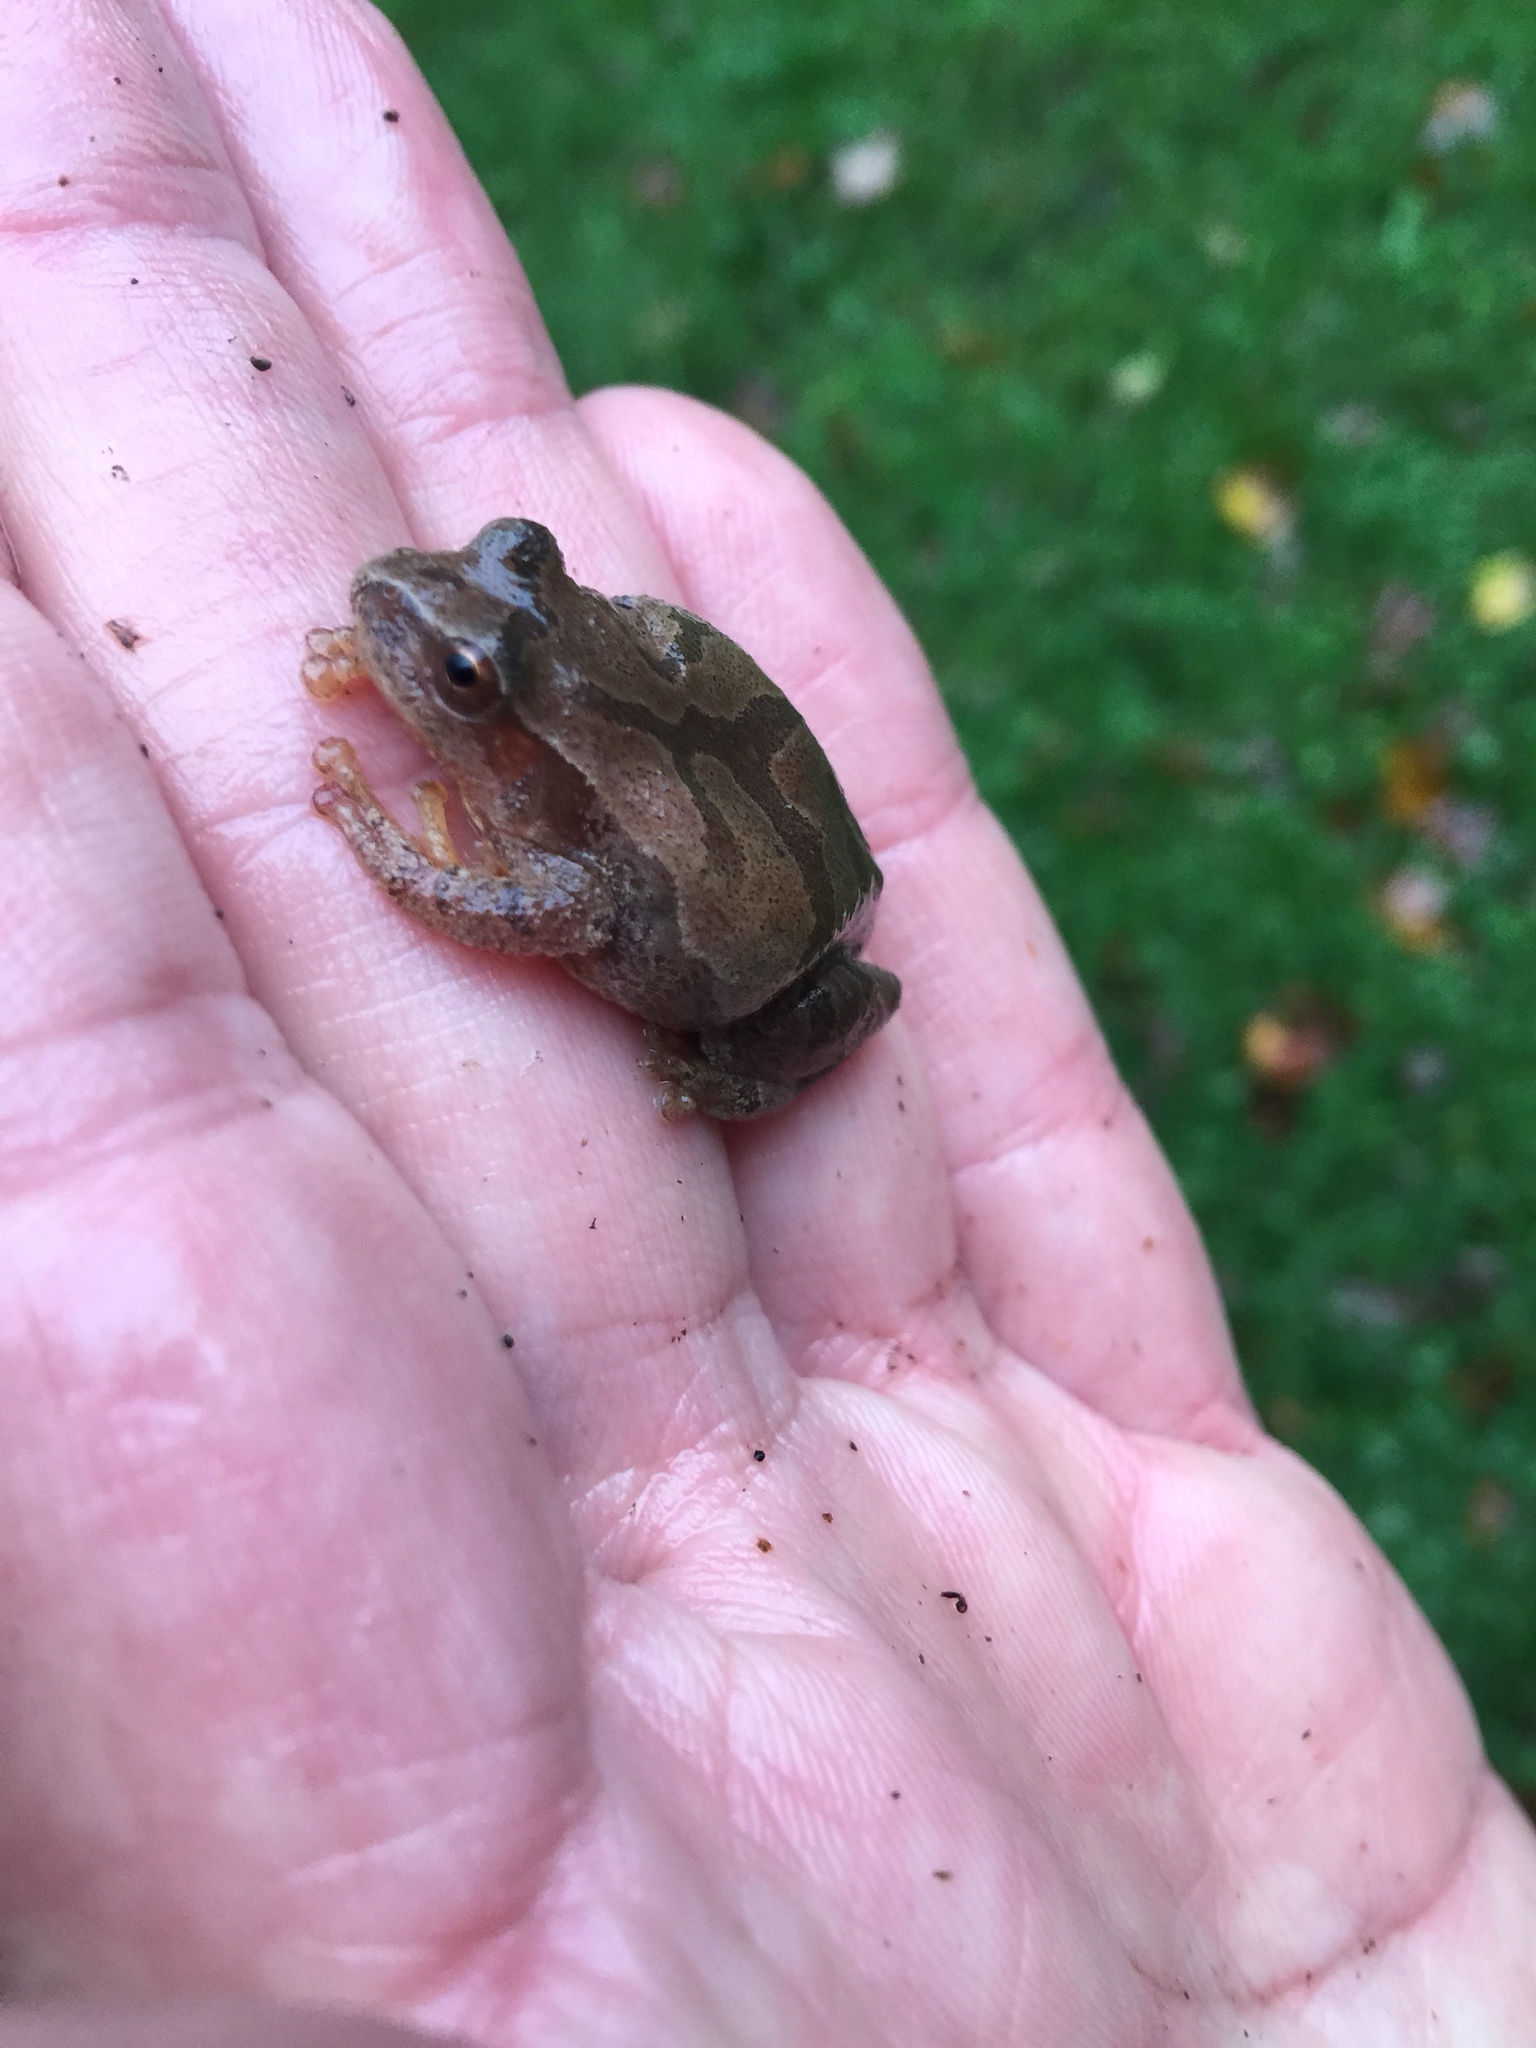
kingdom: Animalia
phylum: Chordata
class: Amphibia
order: Anura
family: Hylidae
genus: Pseudacris
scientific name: Pseudacris crucifer
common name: Spring peeper
